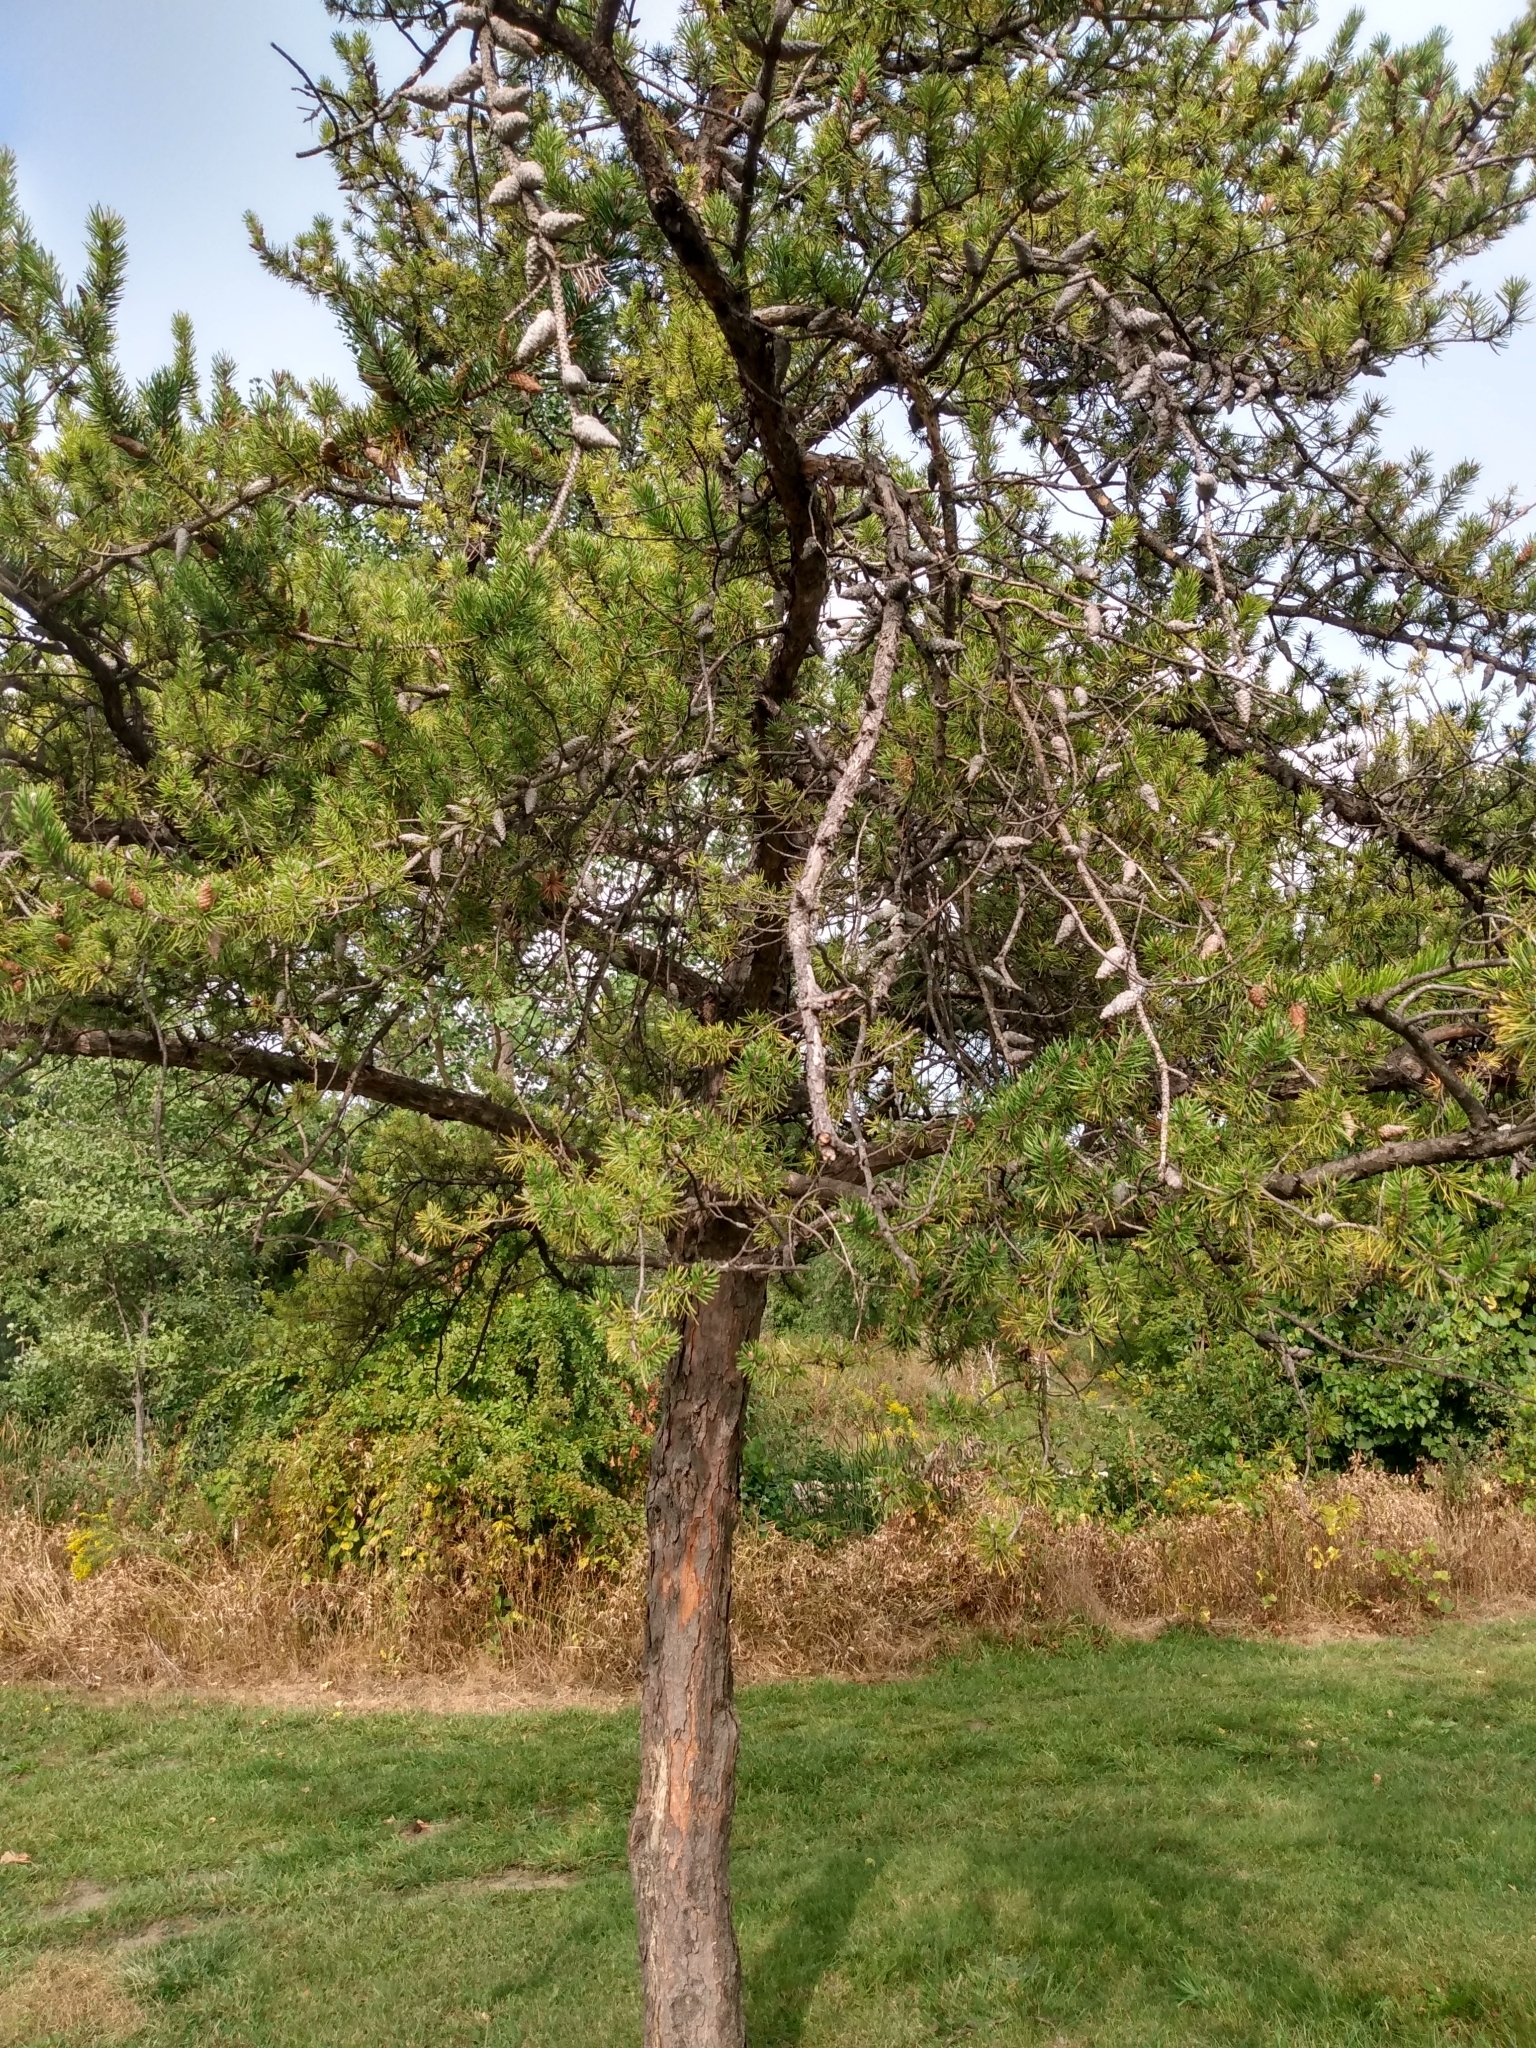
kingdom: Plantae
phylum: Tracheophyta
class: Pinopsida
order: Pinales
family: Pinaceae
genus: Pinus
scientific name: Pinus banksiana
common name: Jack pine
